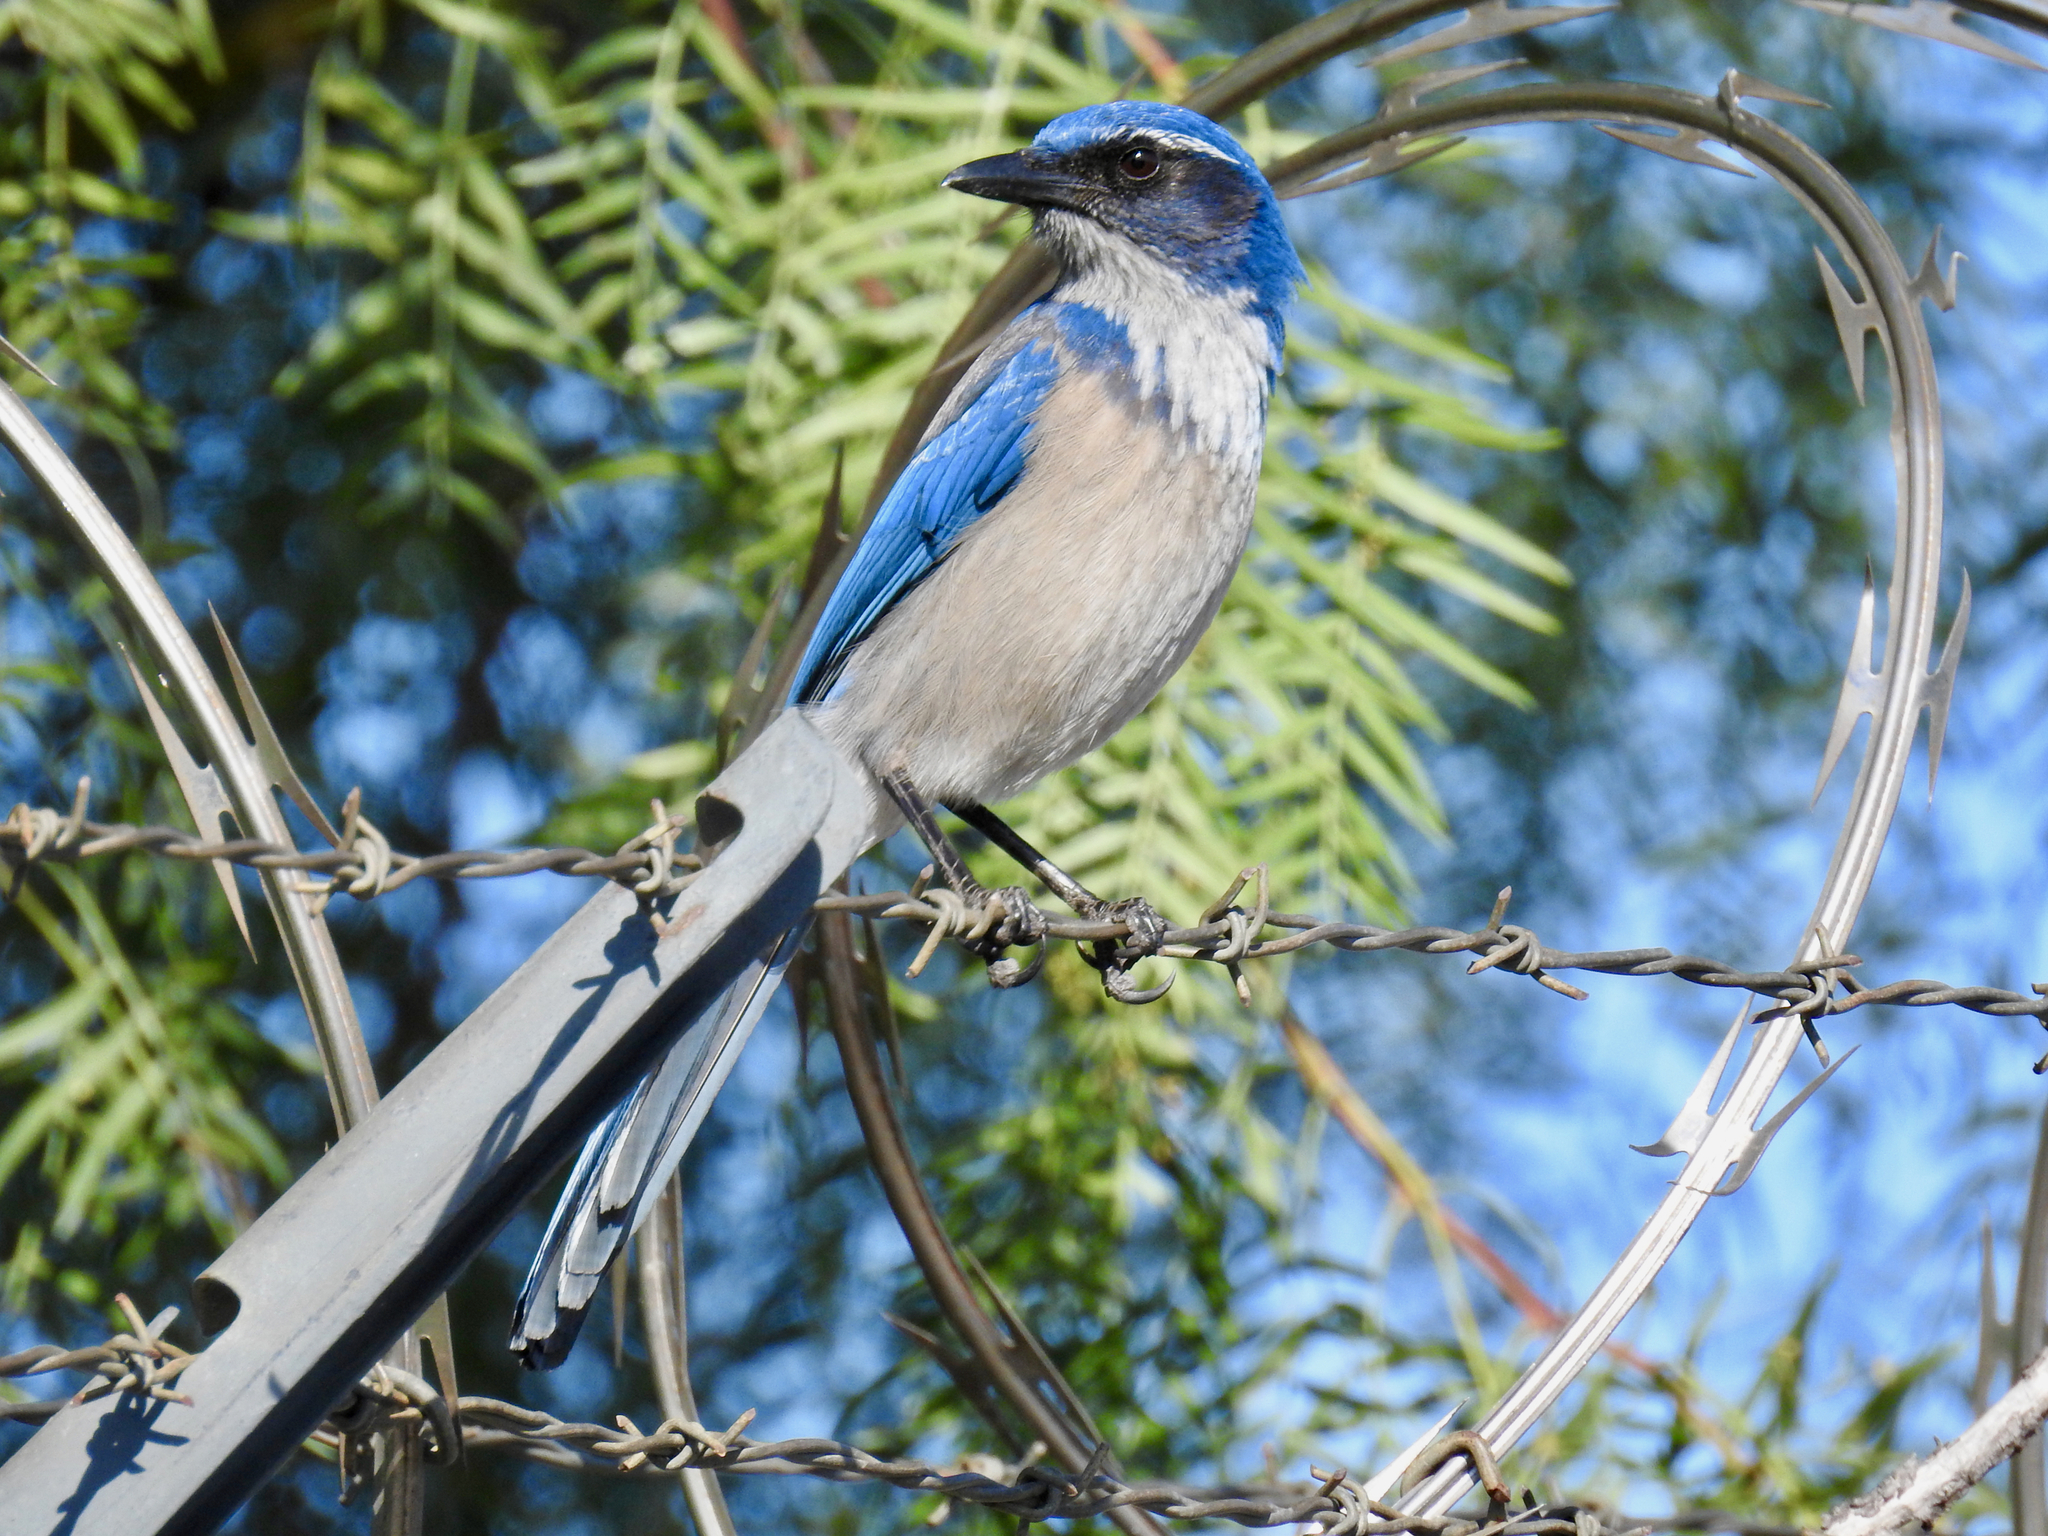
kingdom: Animalia
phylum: Chordata
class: Aves
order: Passeriformes
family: Corvidae
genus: Aphelocoma
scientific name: Aphelocoma californica
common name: California scrub-jay
